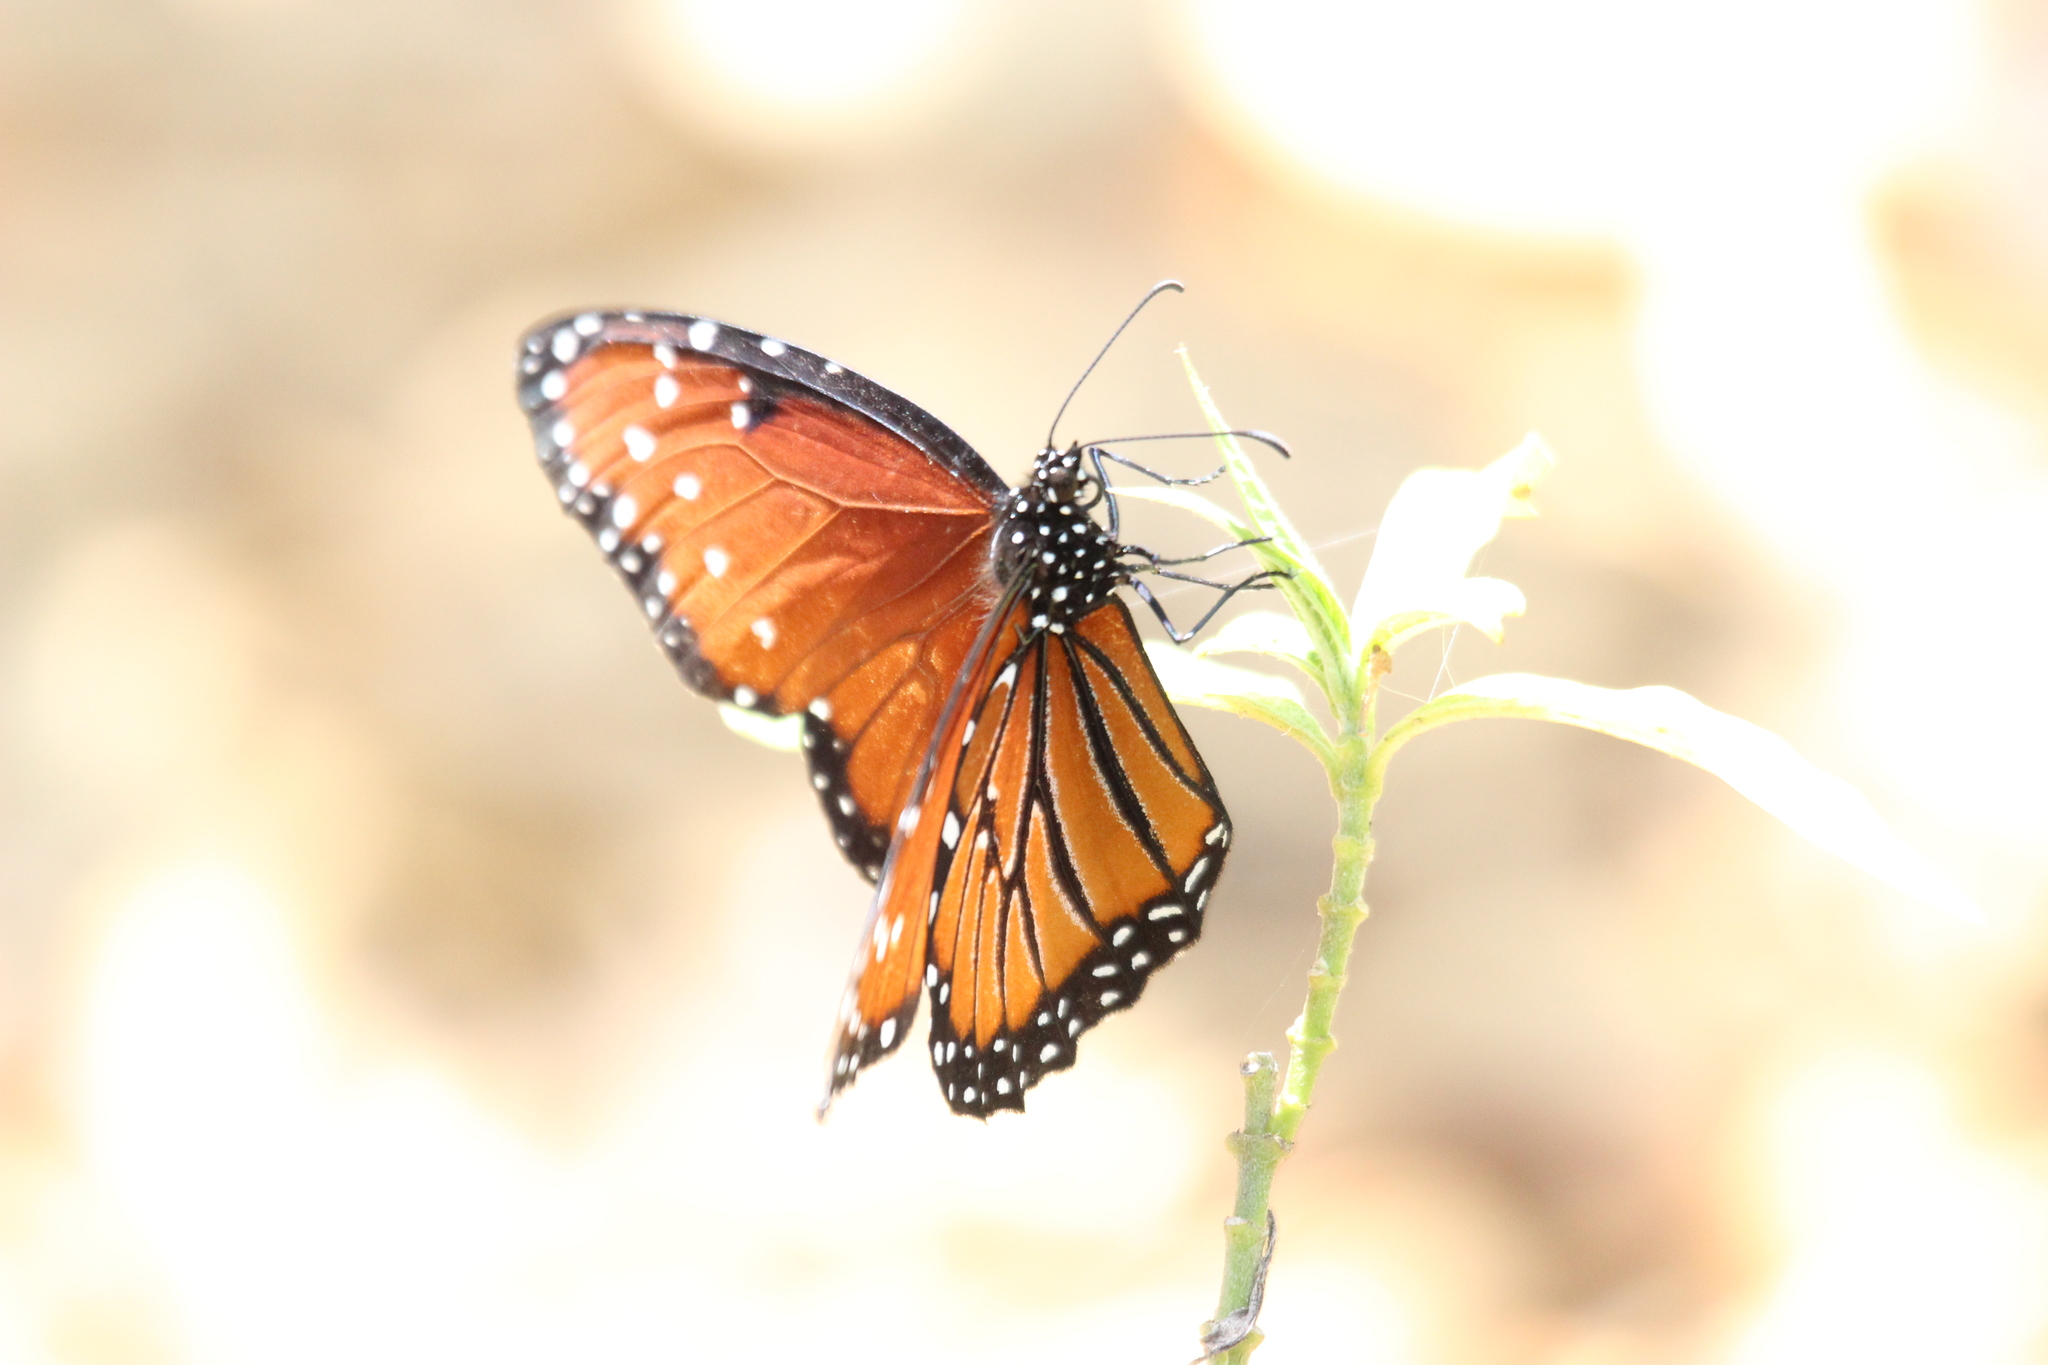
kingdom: Animalia
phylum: Arthropoda
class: Insecta
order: Lepidoptera
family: Nymphalidae
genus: Danaus
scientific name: Danaus gilippus
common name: Queen
